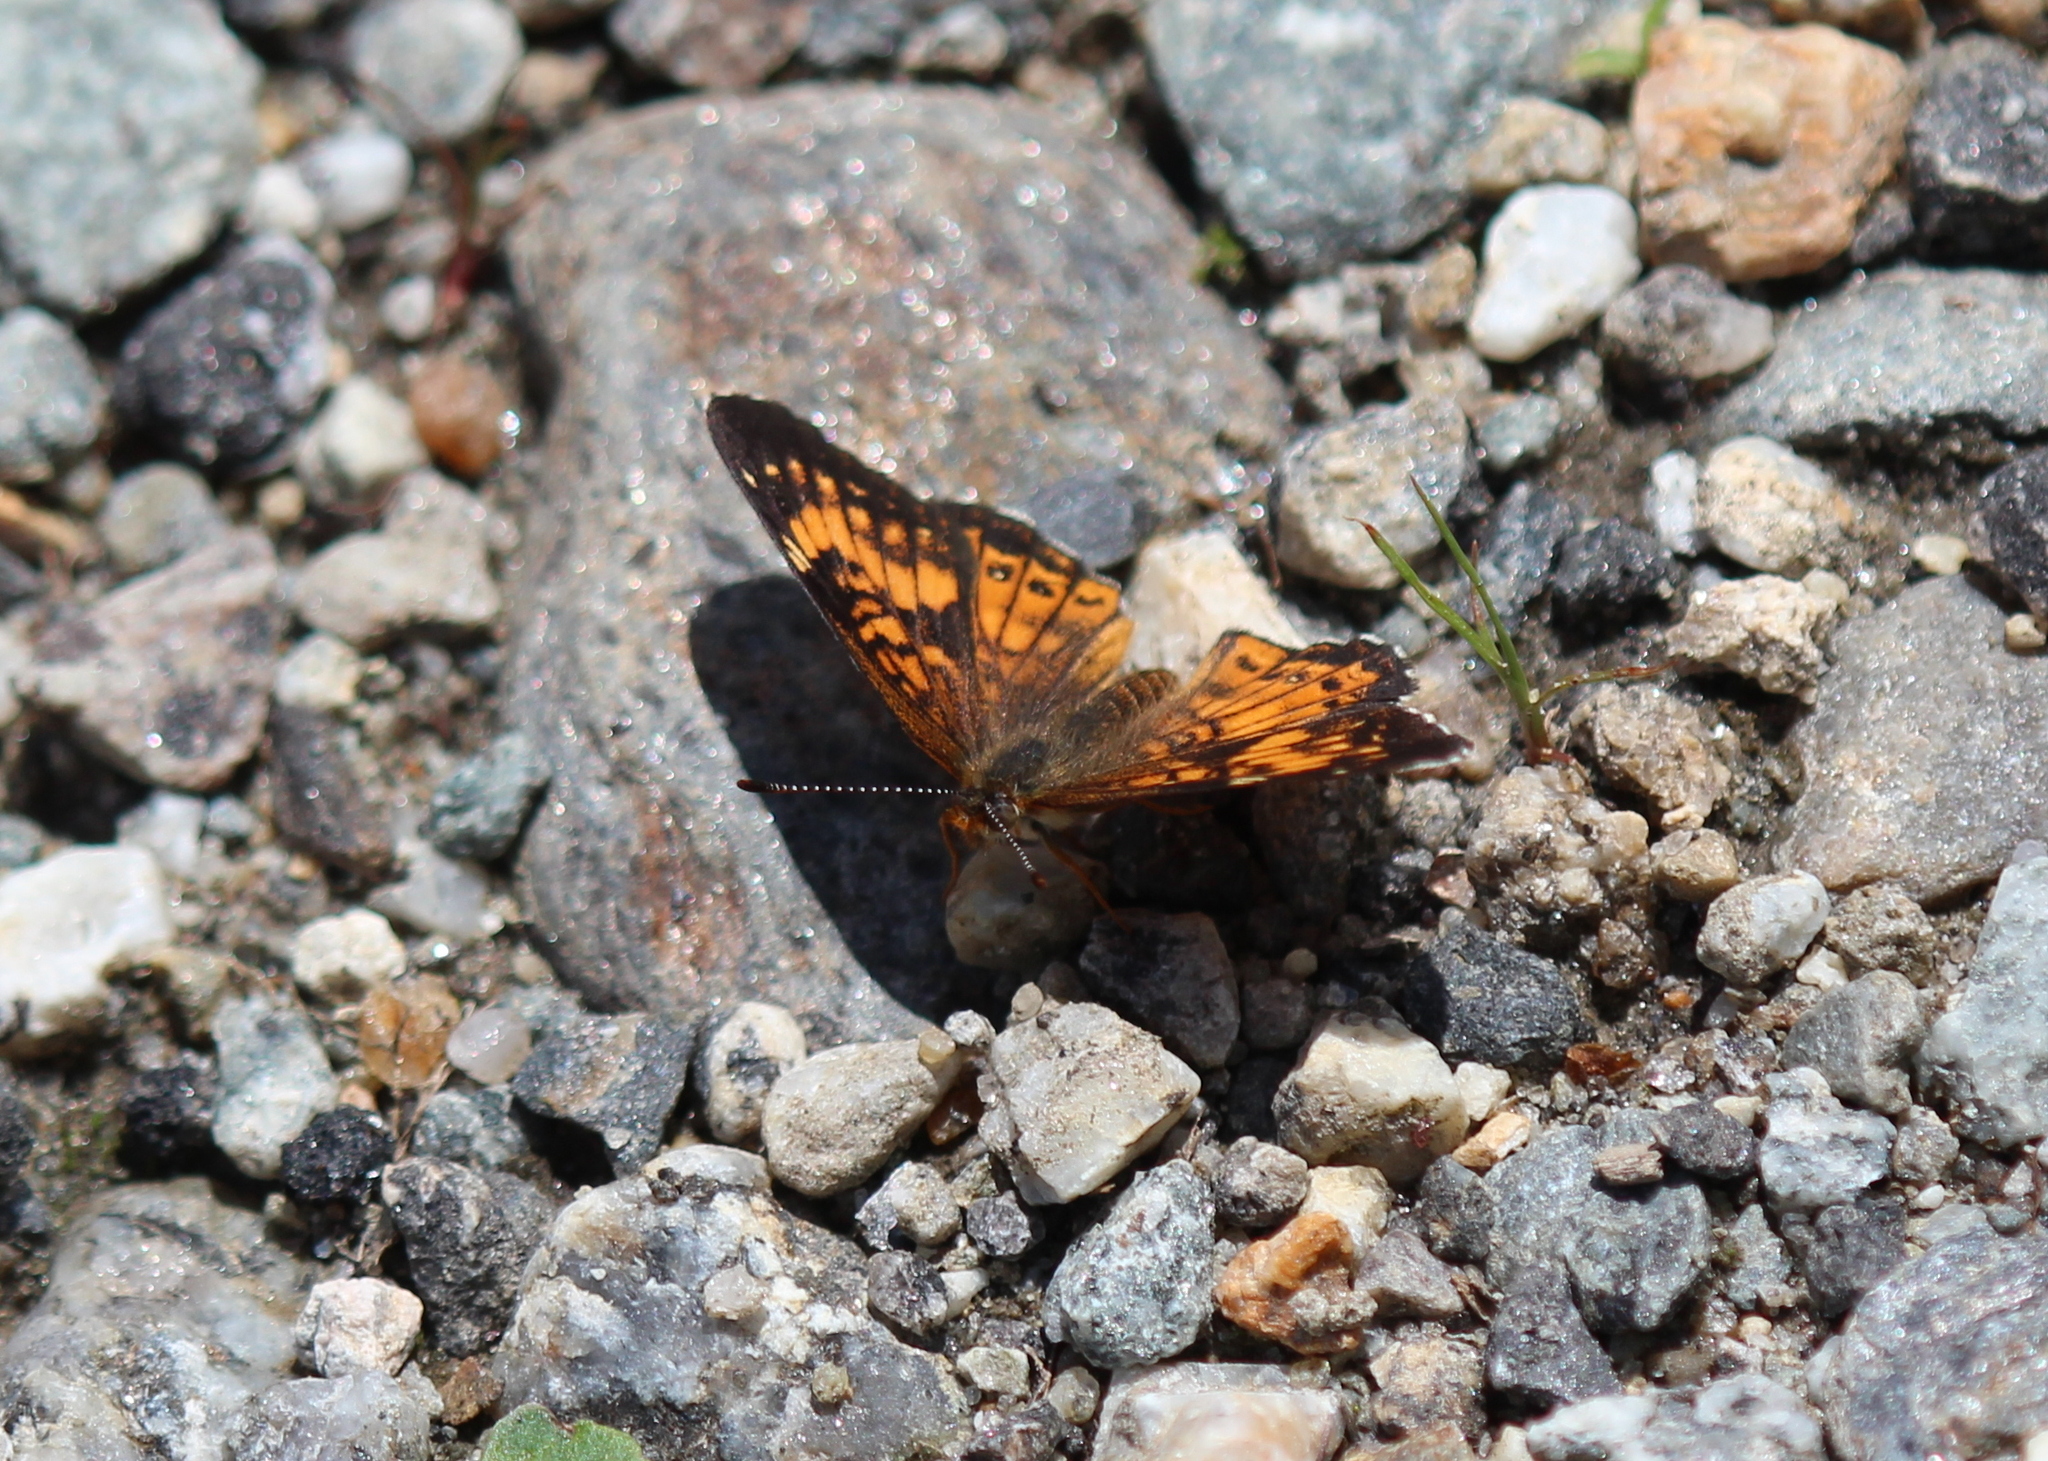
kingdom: Animalia
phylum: Arthropoda
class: Insecta
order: Lepidoptera
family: Nymphalidae
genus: Chlosyne
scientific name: Chlosyne harrisii
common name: Harris's checkerspot
